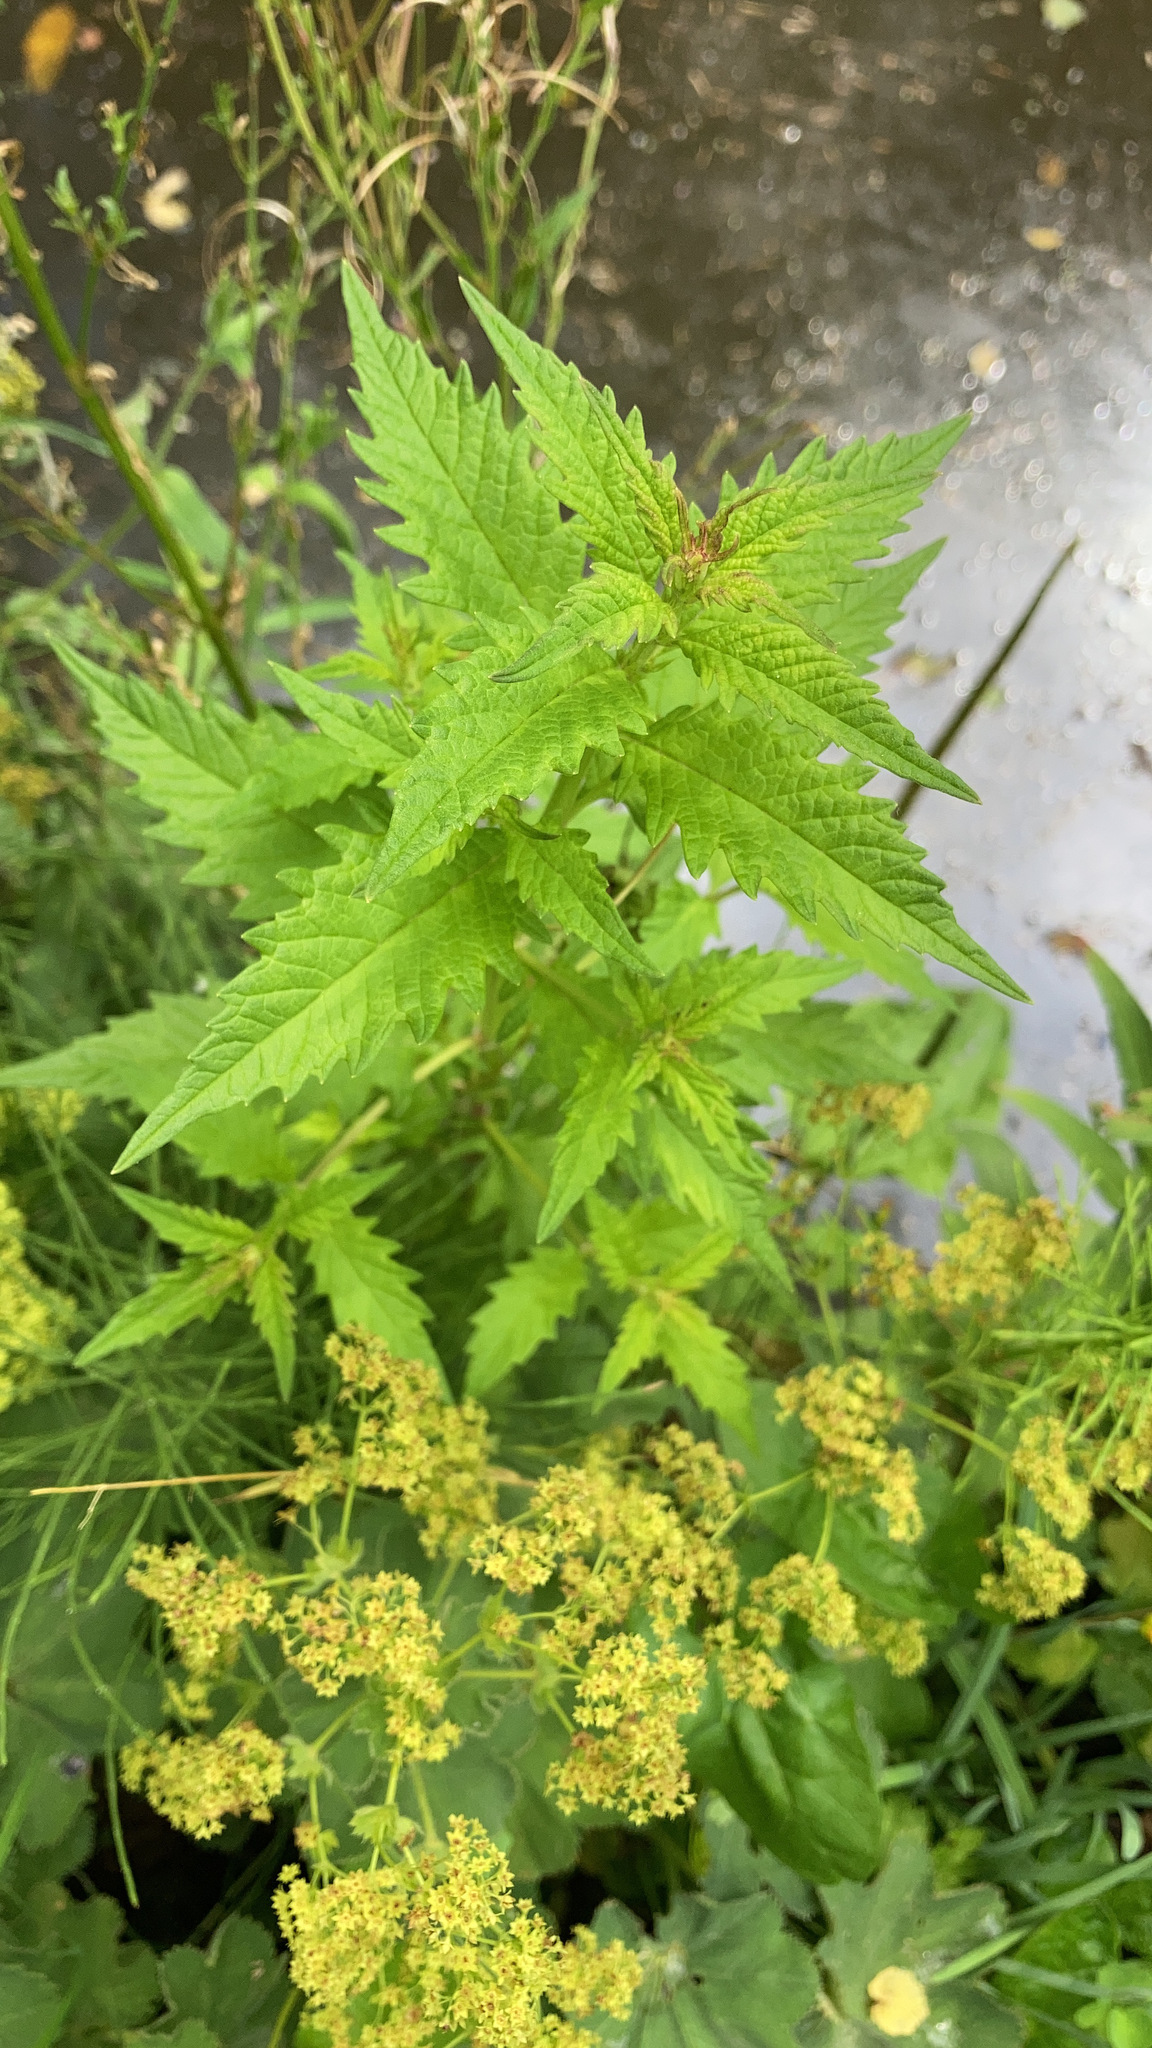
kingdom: Plantae
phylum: Tracheophyta
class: Magnoliopsida
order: Lamiales
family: Lamiaceae
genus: Lycopus
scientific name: Lycopus europaeus
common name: European bugleweed
